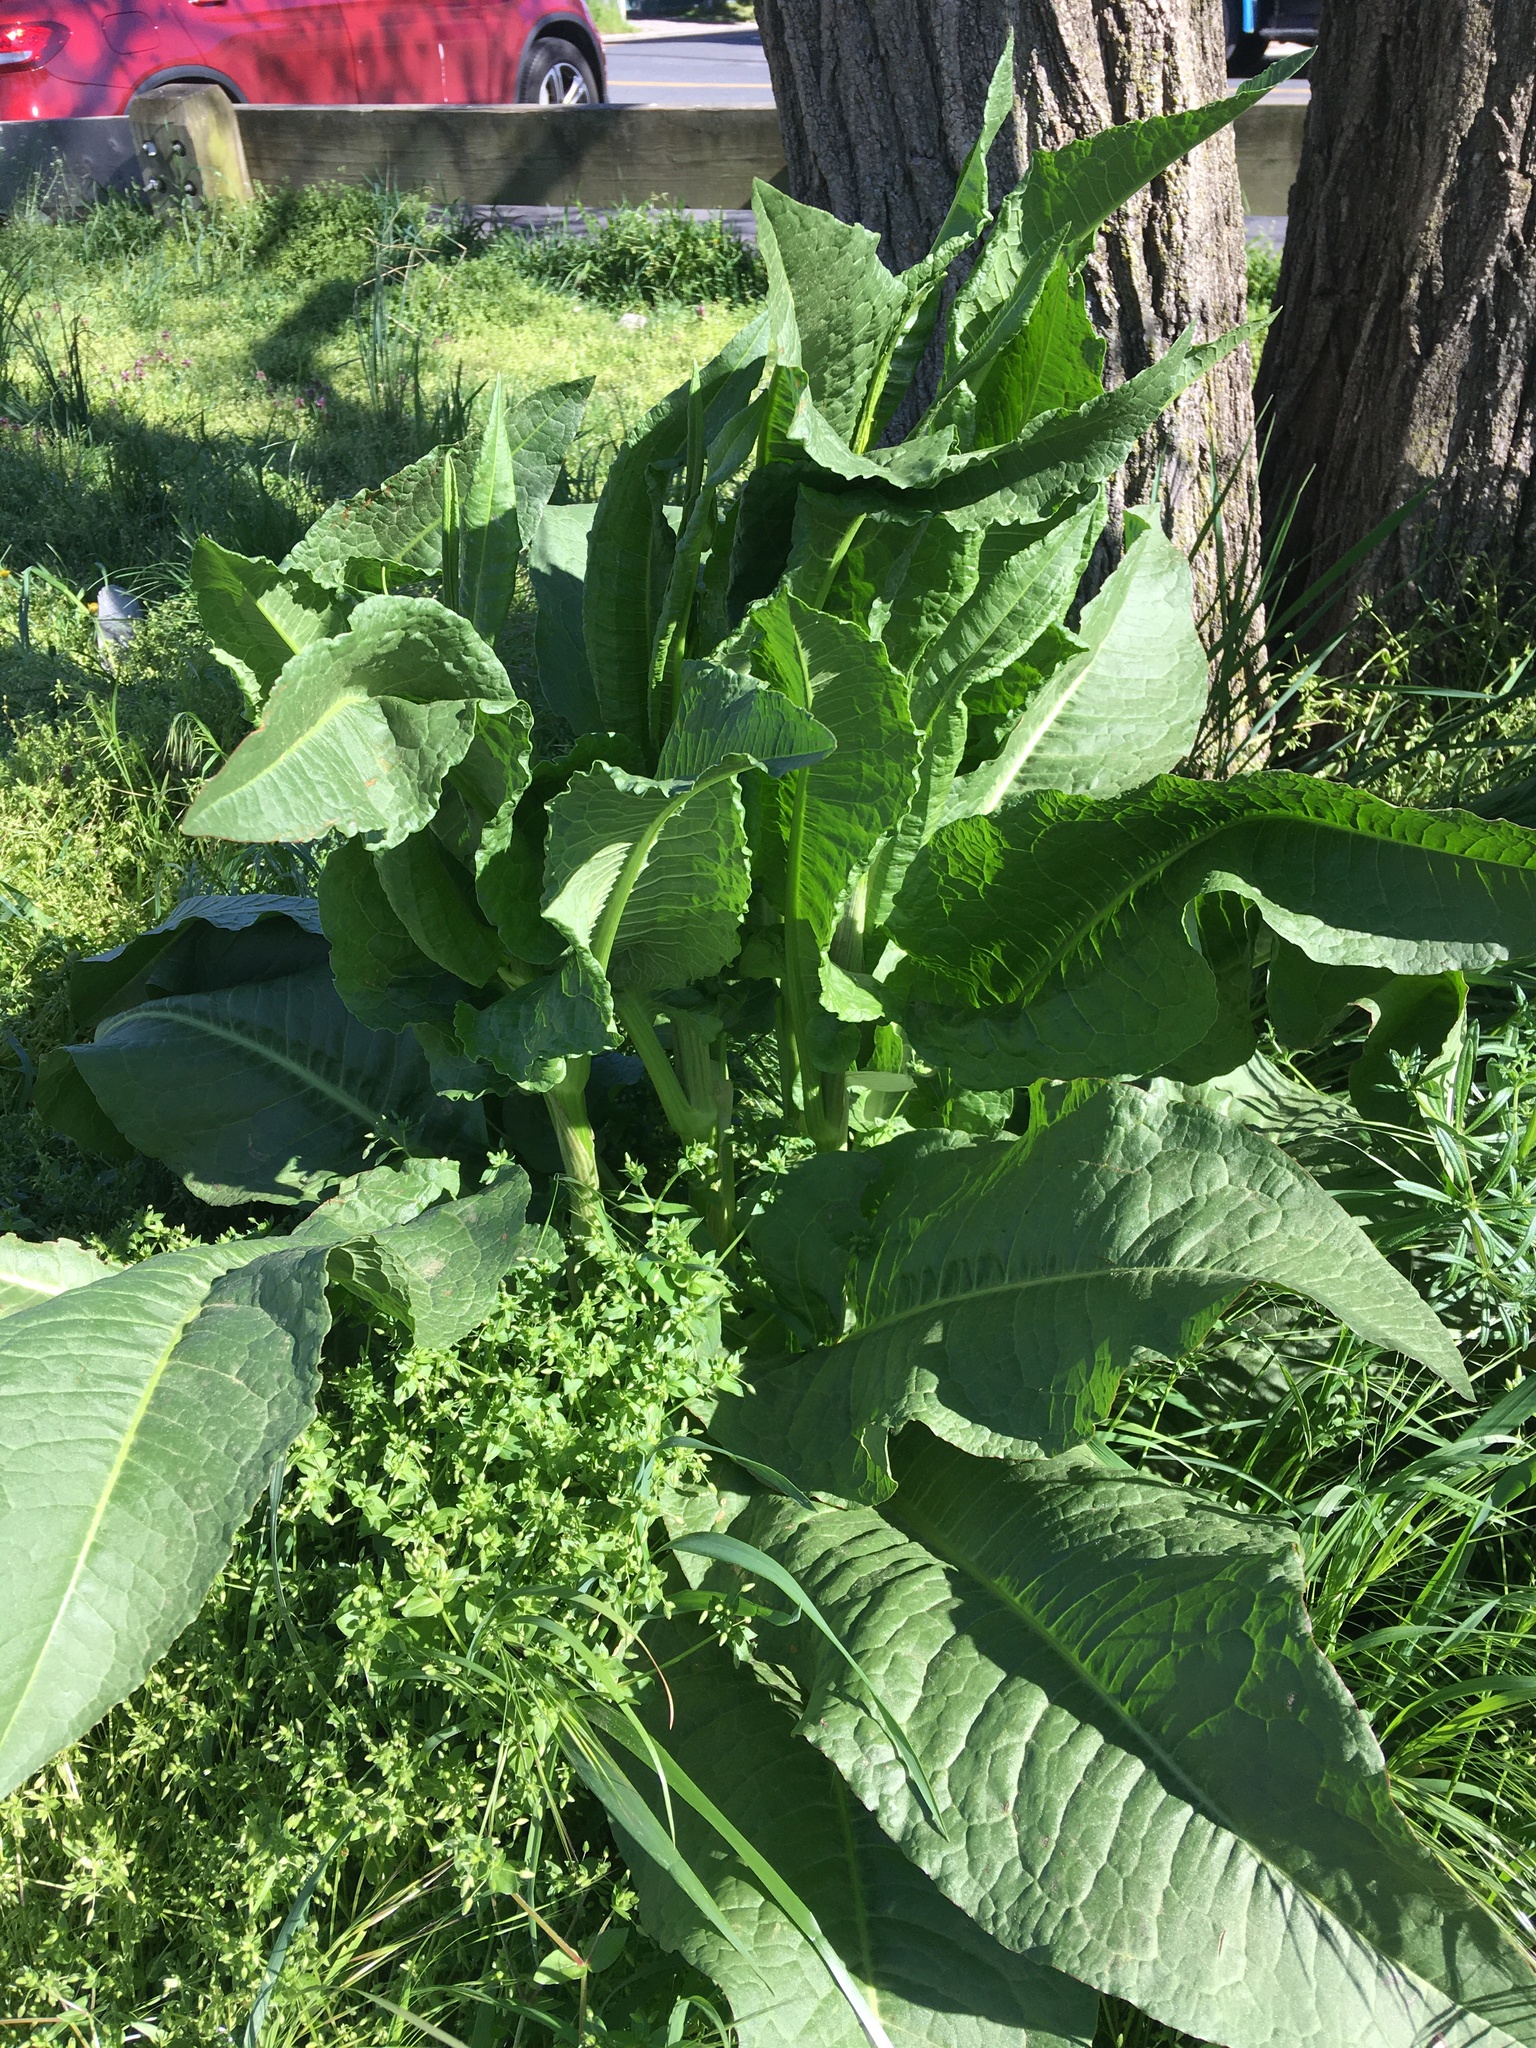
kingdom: Plantae
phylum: Tracheophyta
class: Magnoliopsida
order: Caryophyllales
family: Polygonaceae
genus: Rumex
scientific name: Rumex cristatus
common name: Greek dock
